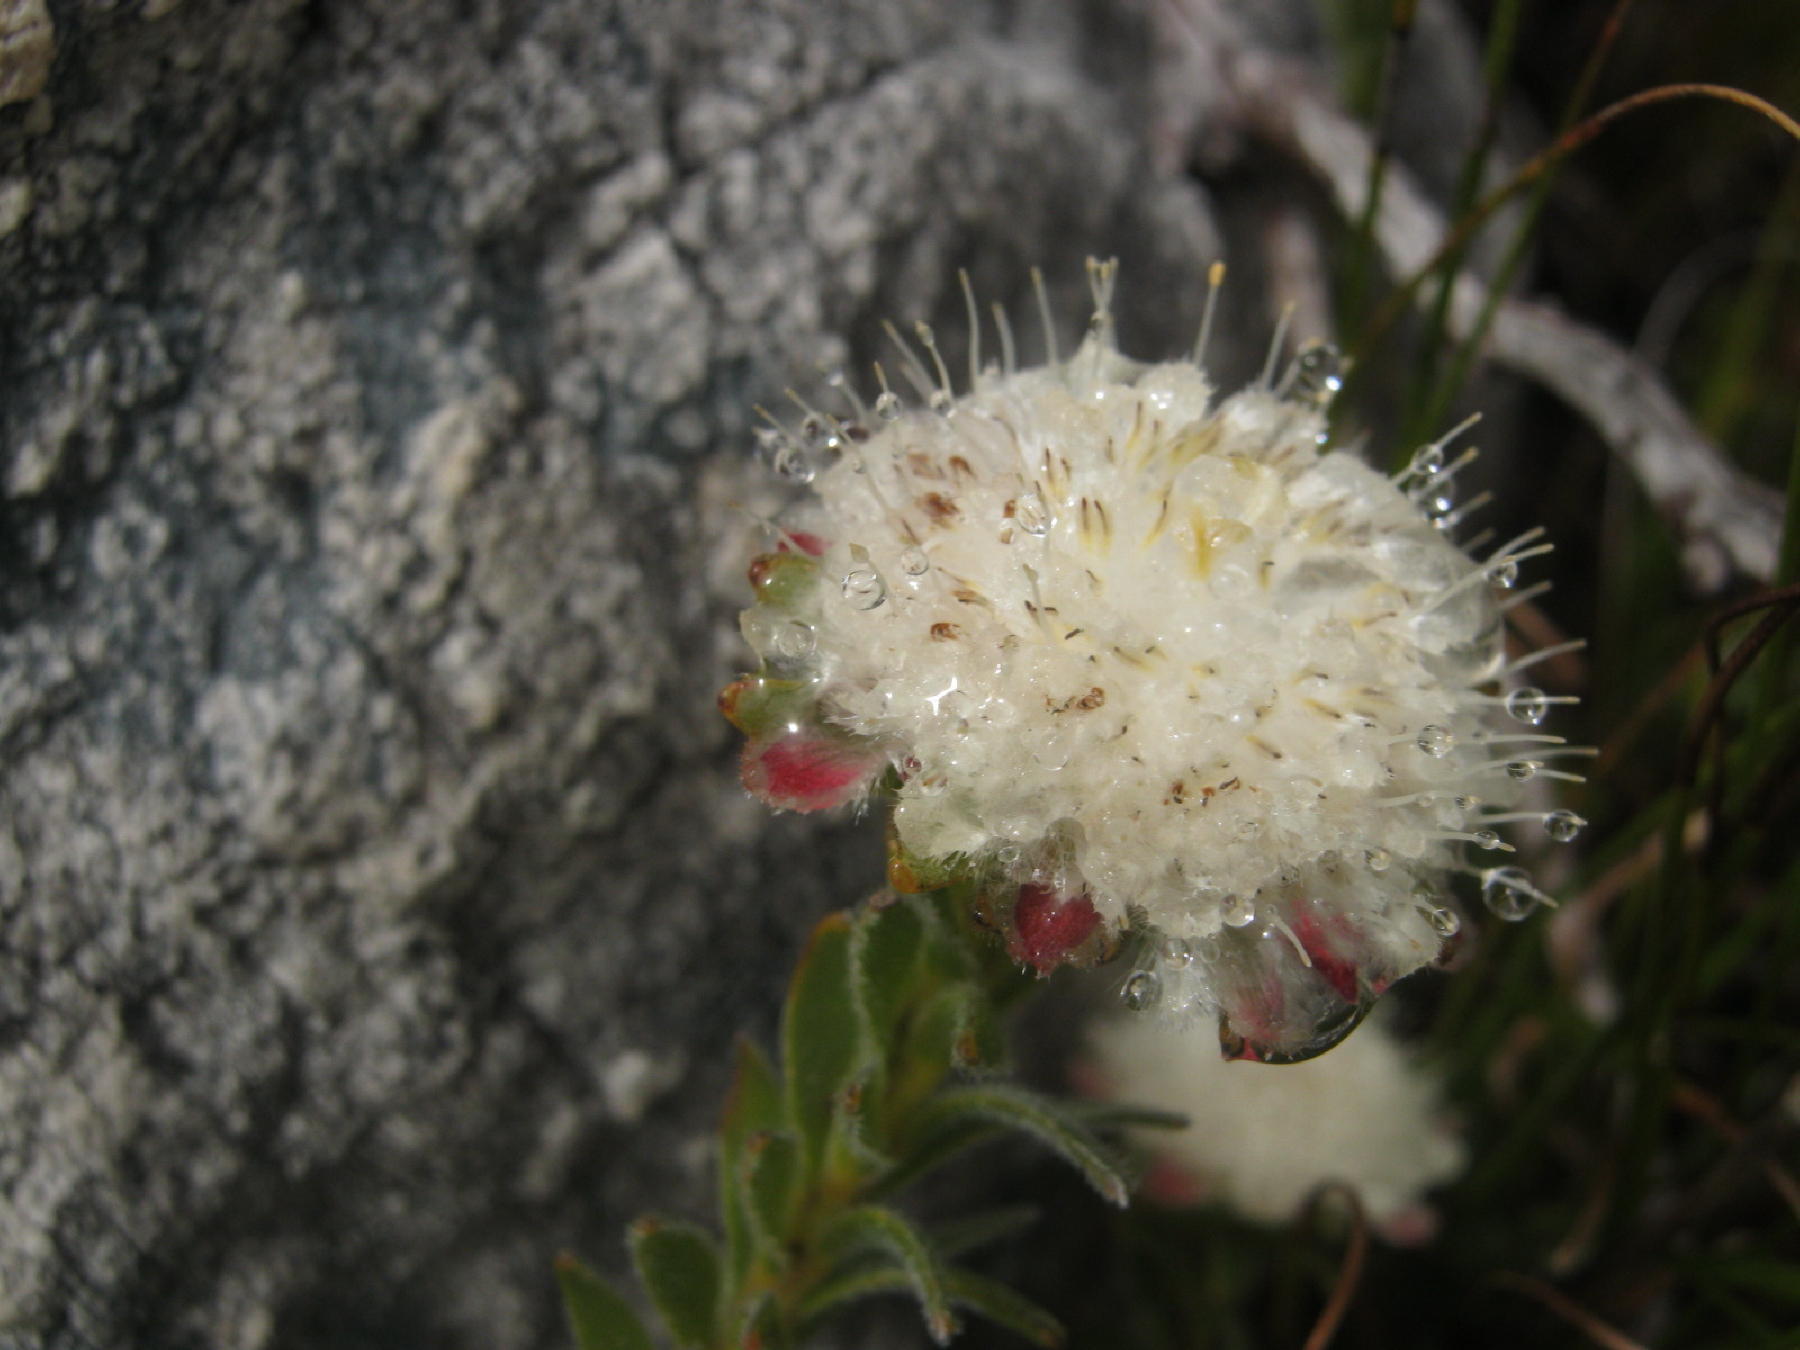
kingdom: Plantae
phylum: Tracheophyta
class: Magnoliopsida
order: Proteales
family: Proteaceae
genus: Diastella
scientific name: Diastella thymelaeoides
